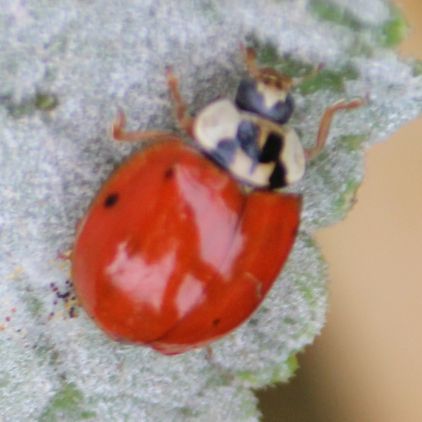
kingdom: Animalia
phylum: Arthropoda
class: Insecta
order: Coleoptera
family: Coccinellidae
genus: Harmonia
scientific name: Harmonia axyridis
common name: Harlequin ladybird
